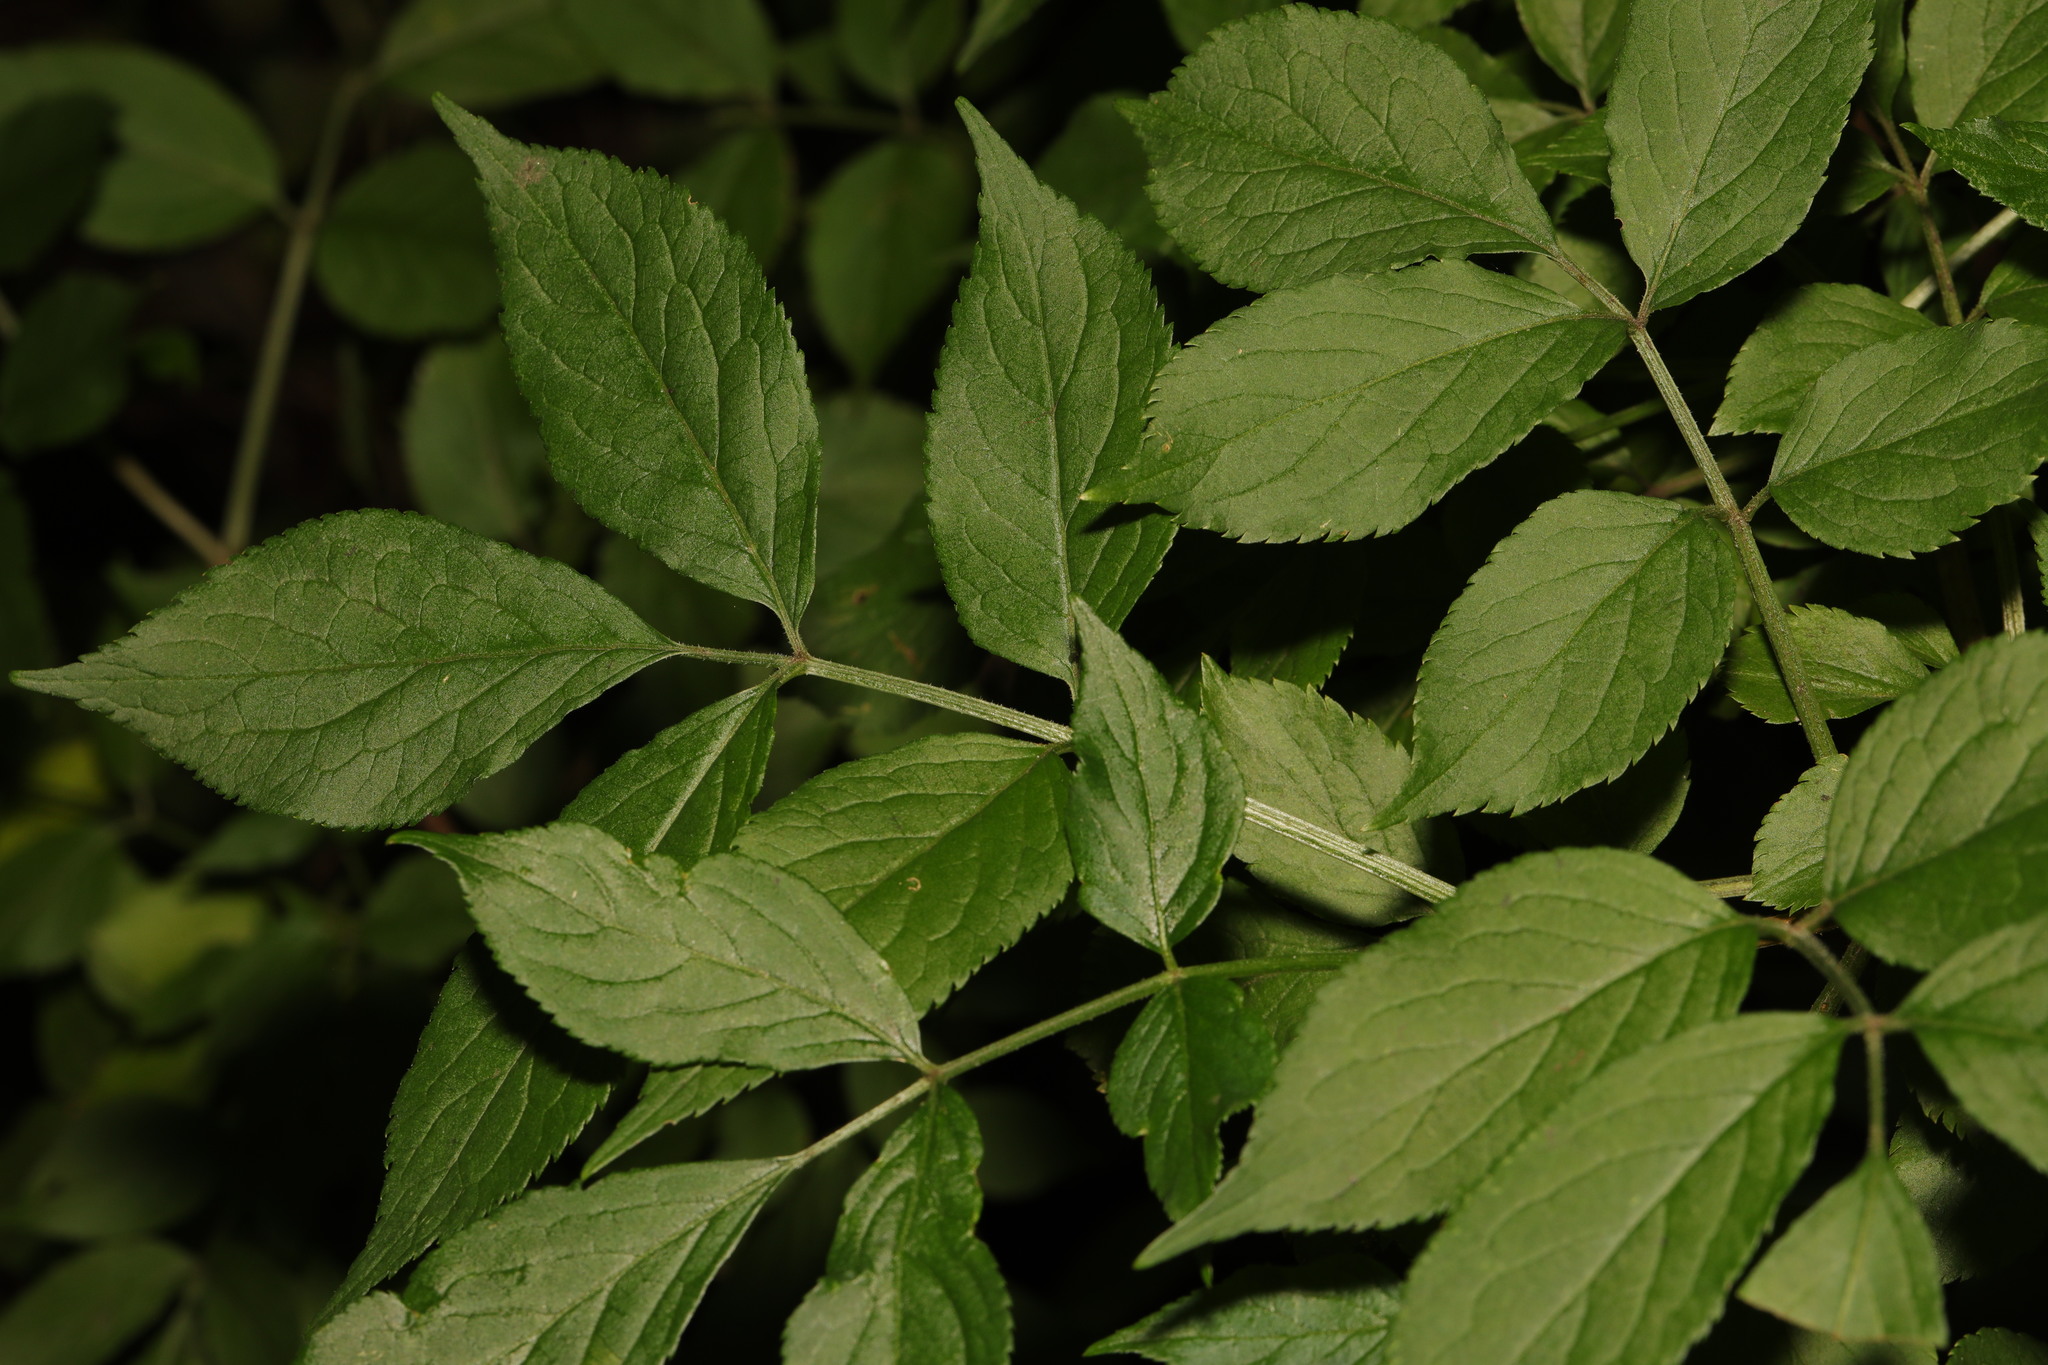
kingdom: Plantae
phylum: Tracheophyta
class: Magnoliopsida
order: Dipsacales
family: Viburnaceae
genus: Sambucus
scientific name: Sambucus nigra
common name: Elder
